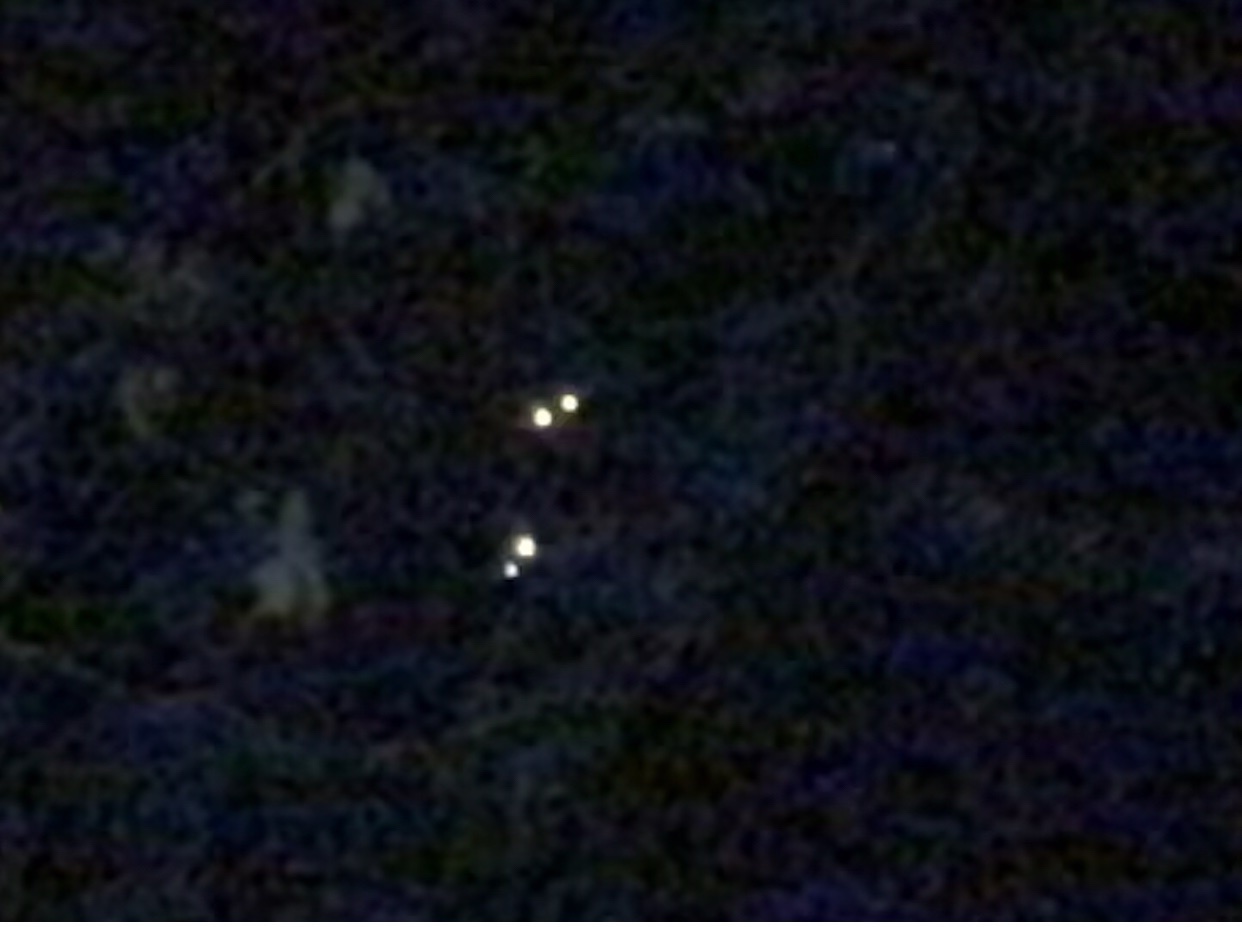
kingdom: Animalia
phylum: Chordata
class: Mammalia
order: Carnivora
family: Procyonidae
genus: Procyon
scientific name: Procyon lotor
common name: Raccoon
